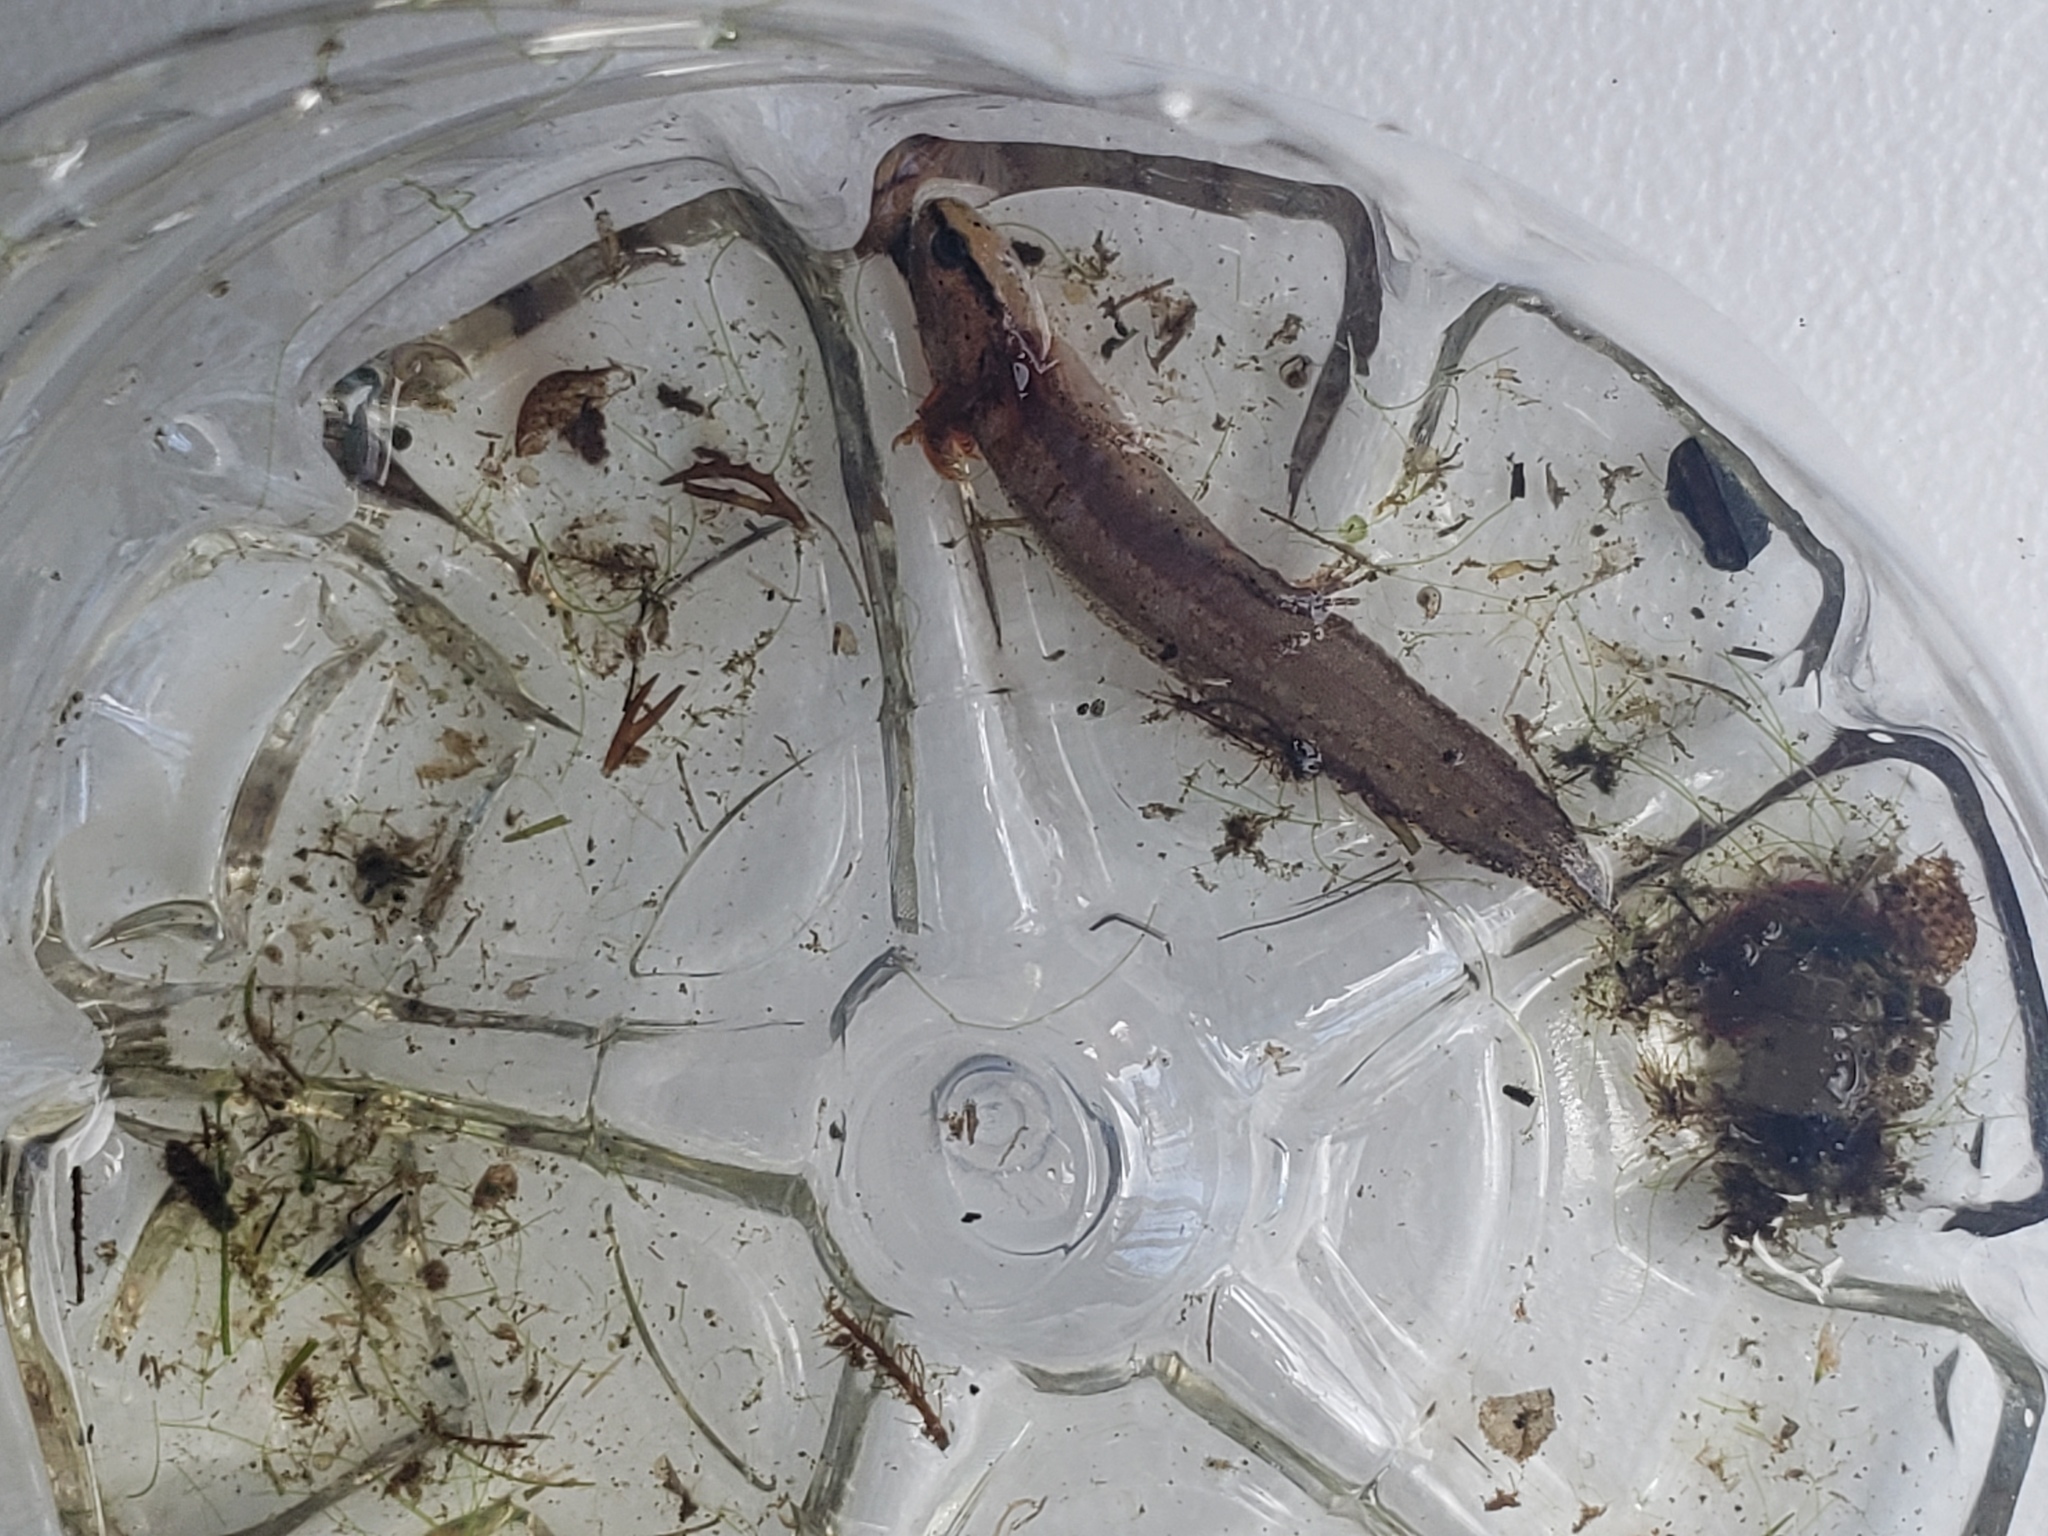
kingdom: Animalia
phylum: Chordata
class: Amphibia
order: Caudata
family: Salamandridae
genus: Notophthalmus
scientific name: Notophthalmus viridescens
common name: Eastern newt
